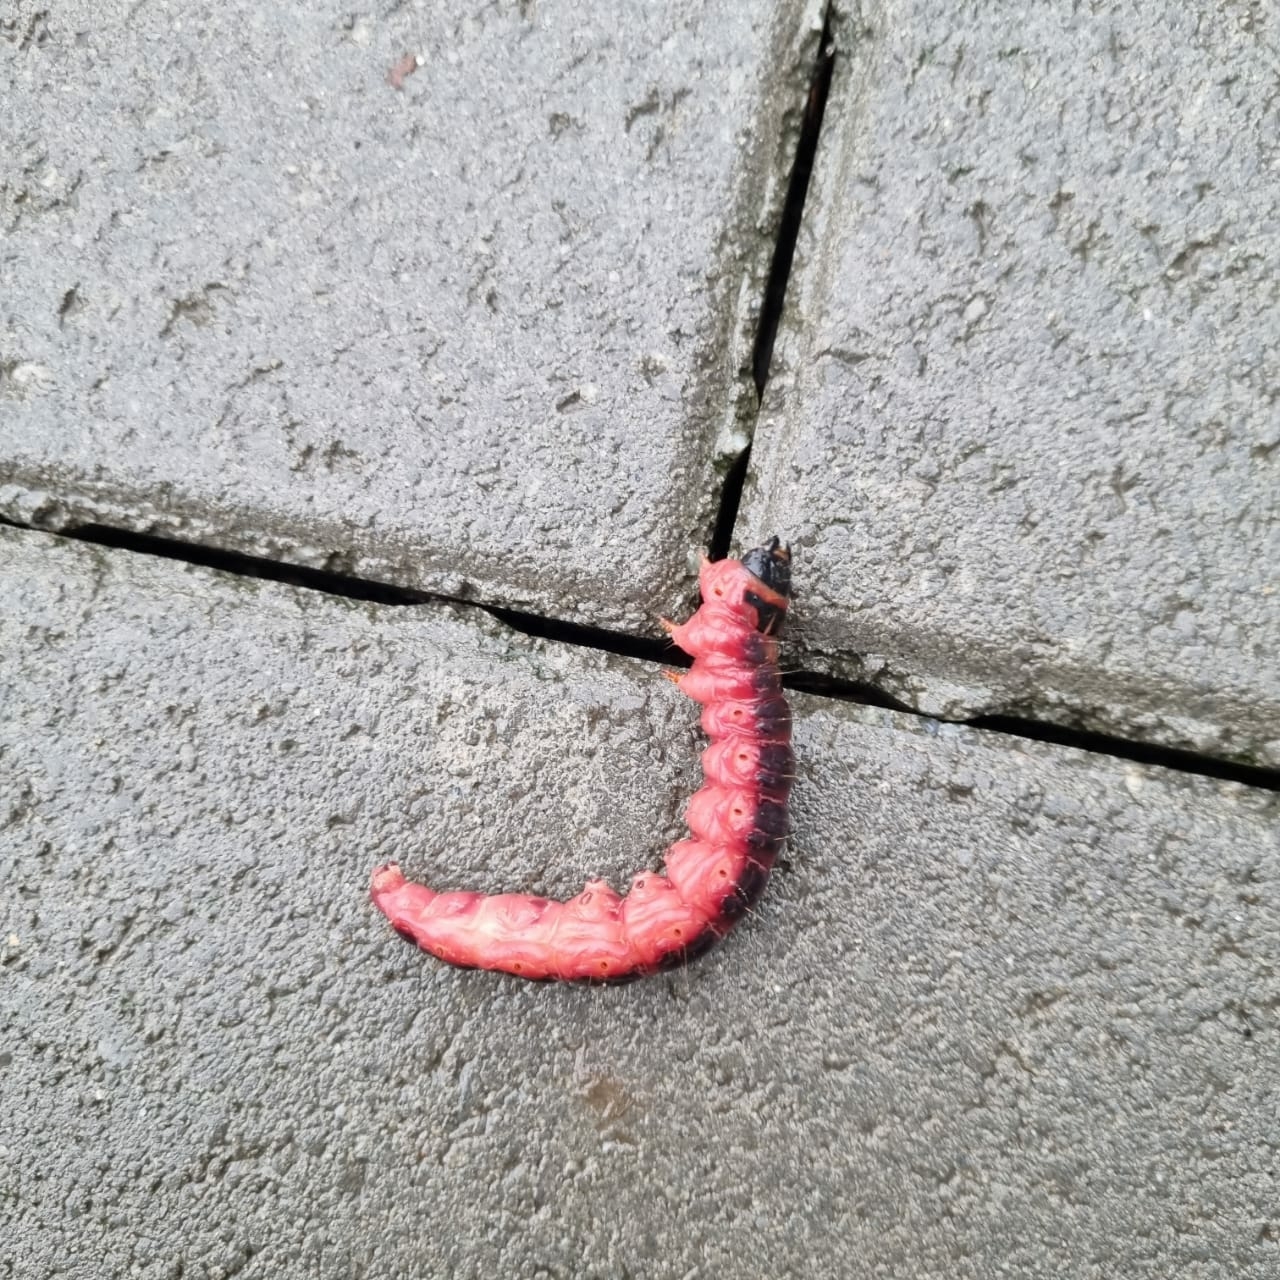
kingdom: Animalia
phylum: Arthropoda
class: Insecta
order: Lepidoptera
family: Cossidae
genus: Cossus
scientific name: Cossus cossus
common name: Goat moth
